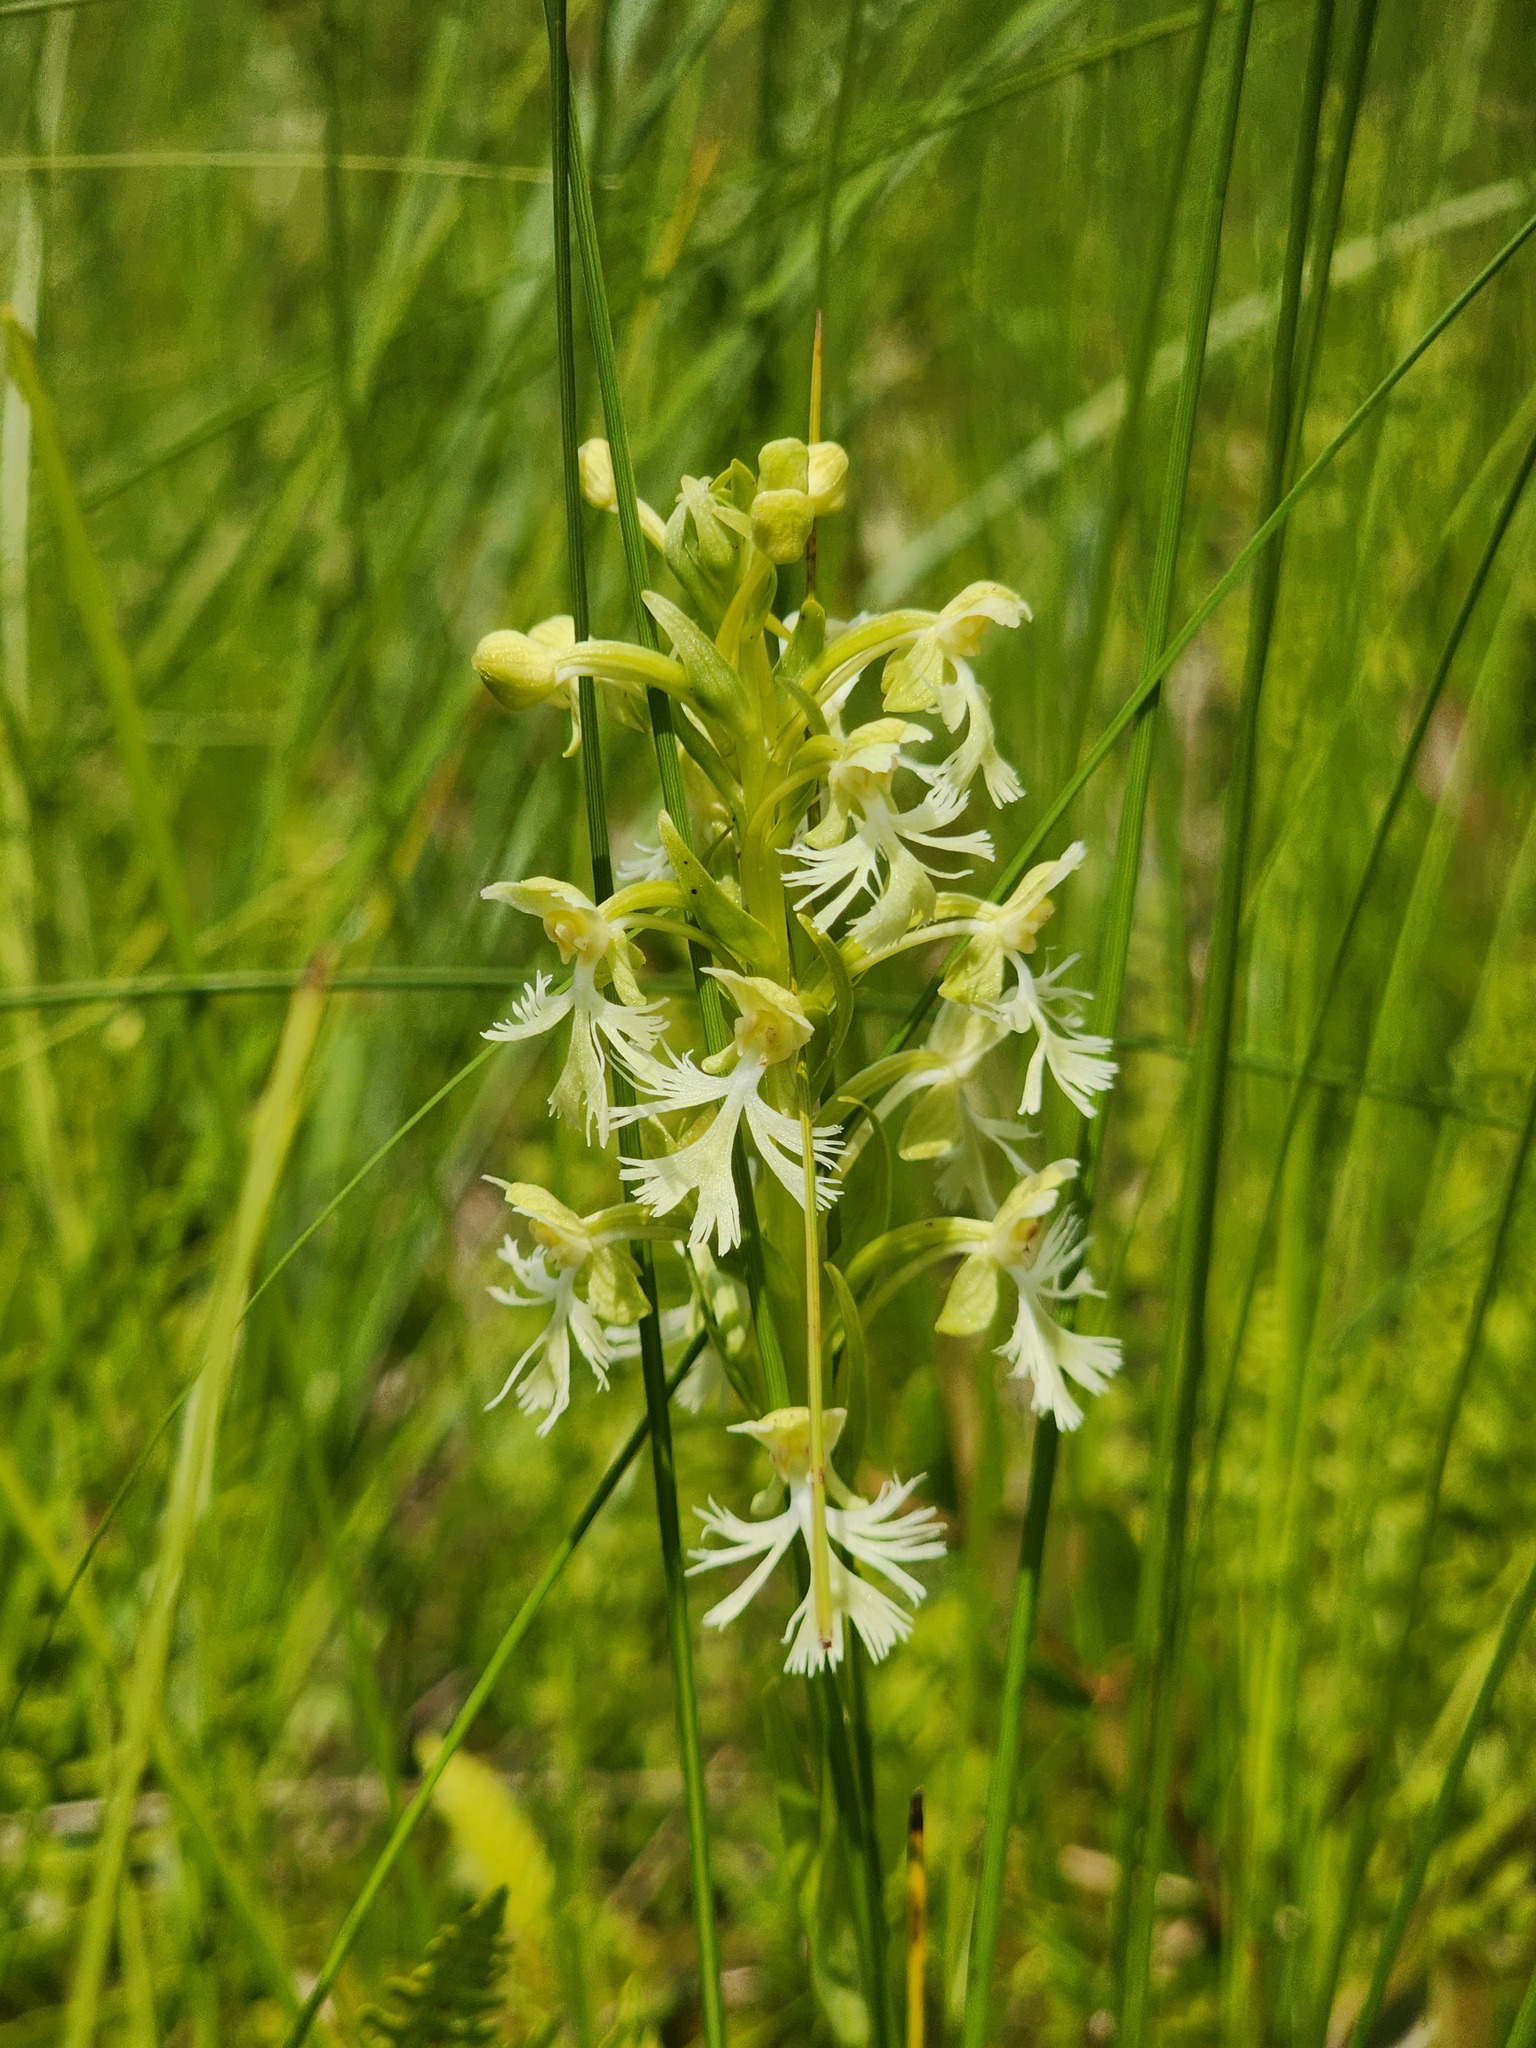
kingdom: Plantae
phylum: Tracheophyta
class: Liliopsida
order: Asparagales
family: Orchidaceae
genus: Platanthera
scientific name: Platanthera lacera
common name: Green fringed orchid
